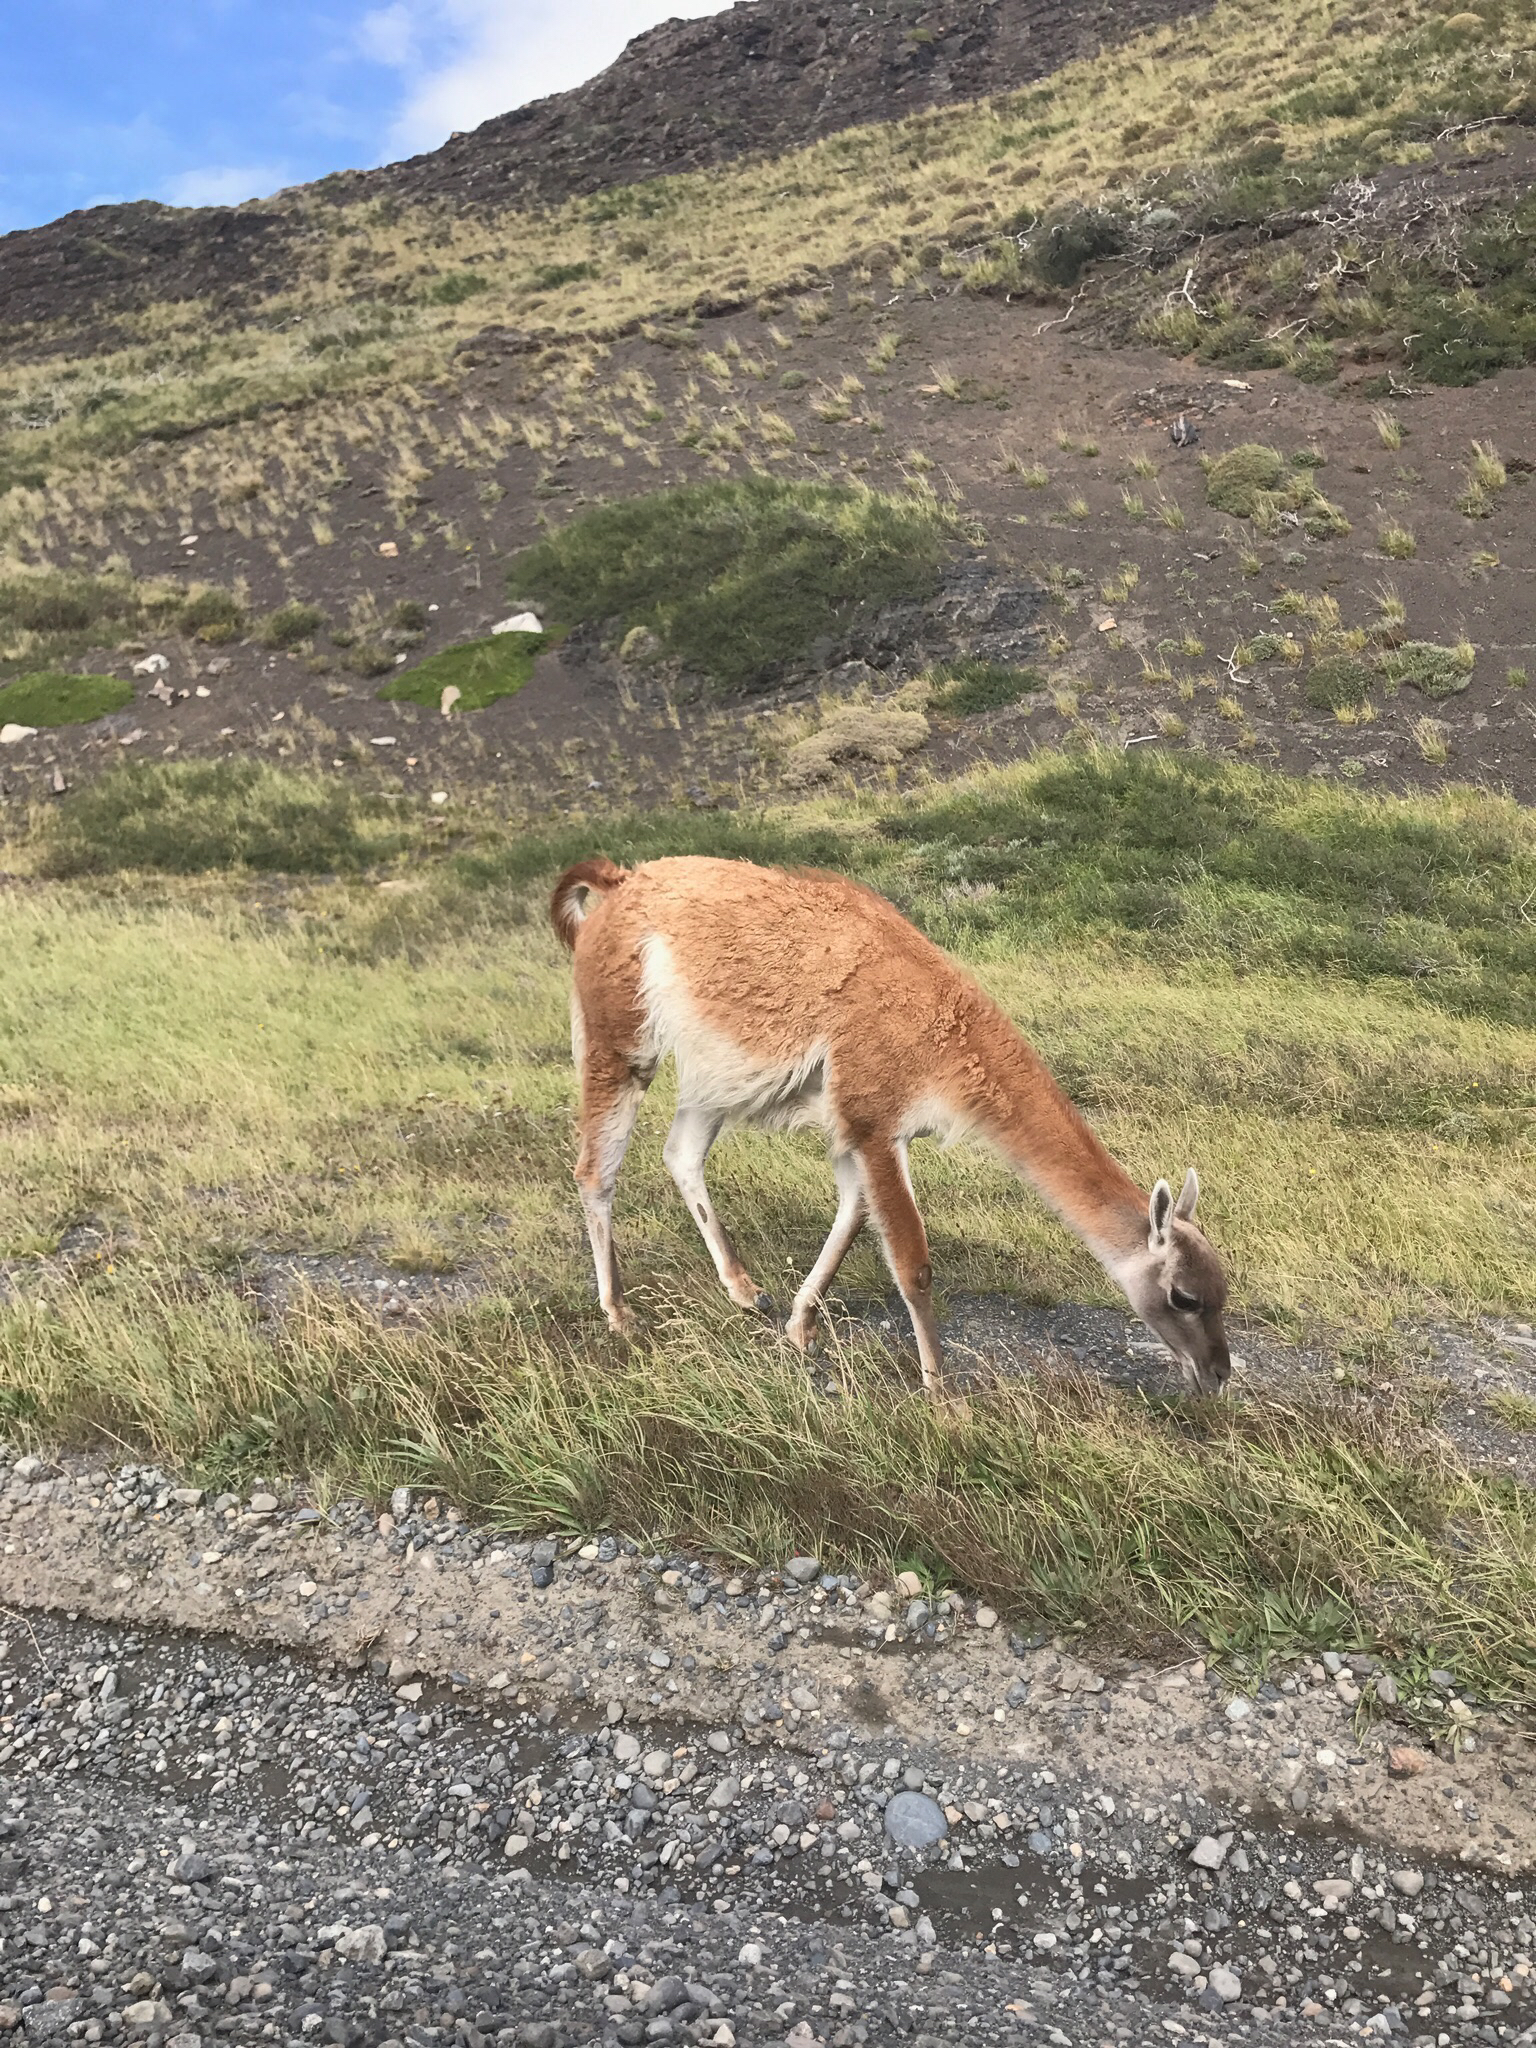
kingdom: Animalia
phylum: Chordata
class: Mammalia
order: Artiodactyla
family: Camelidae
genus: Lama
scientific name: Lama glama
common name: Llama
